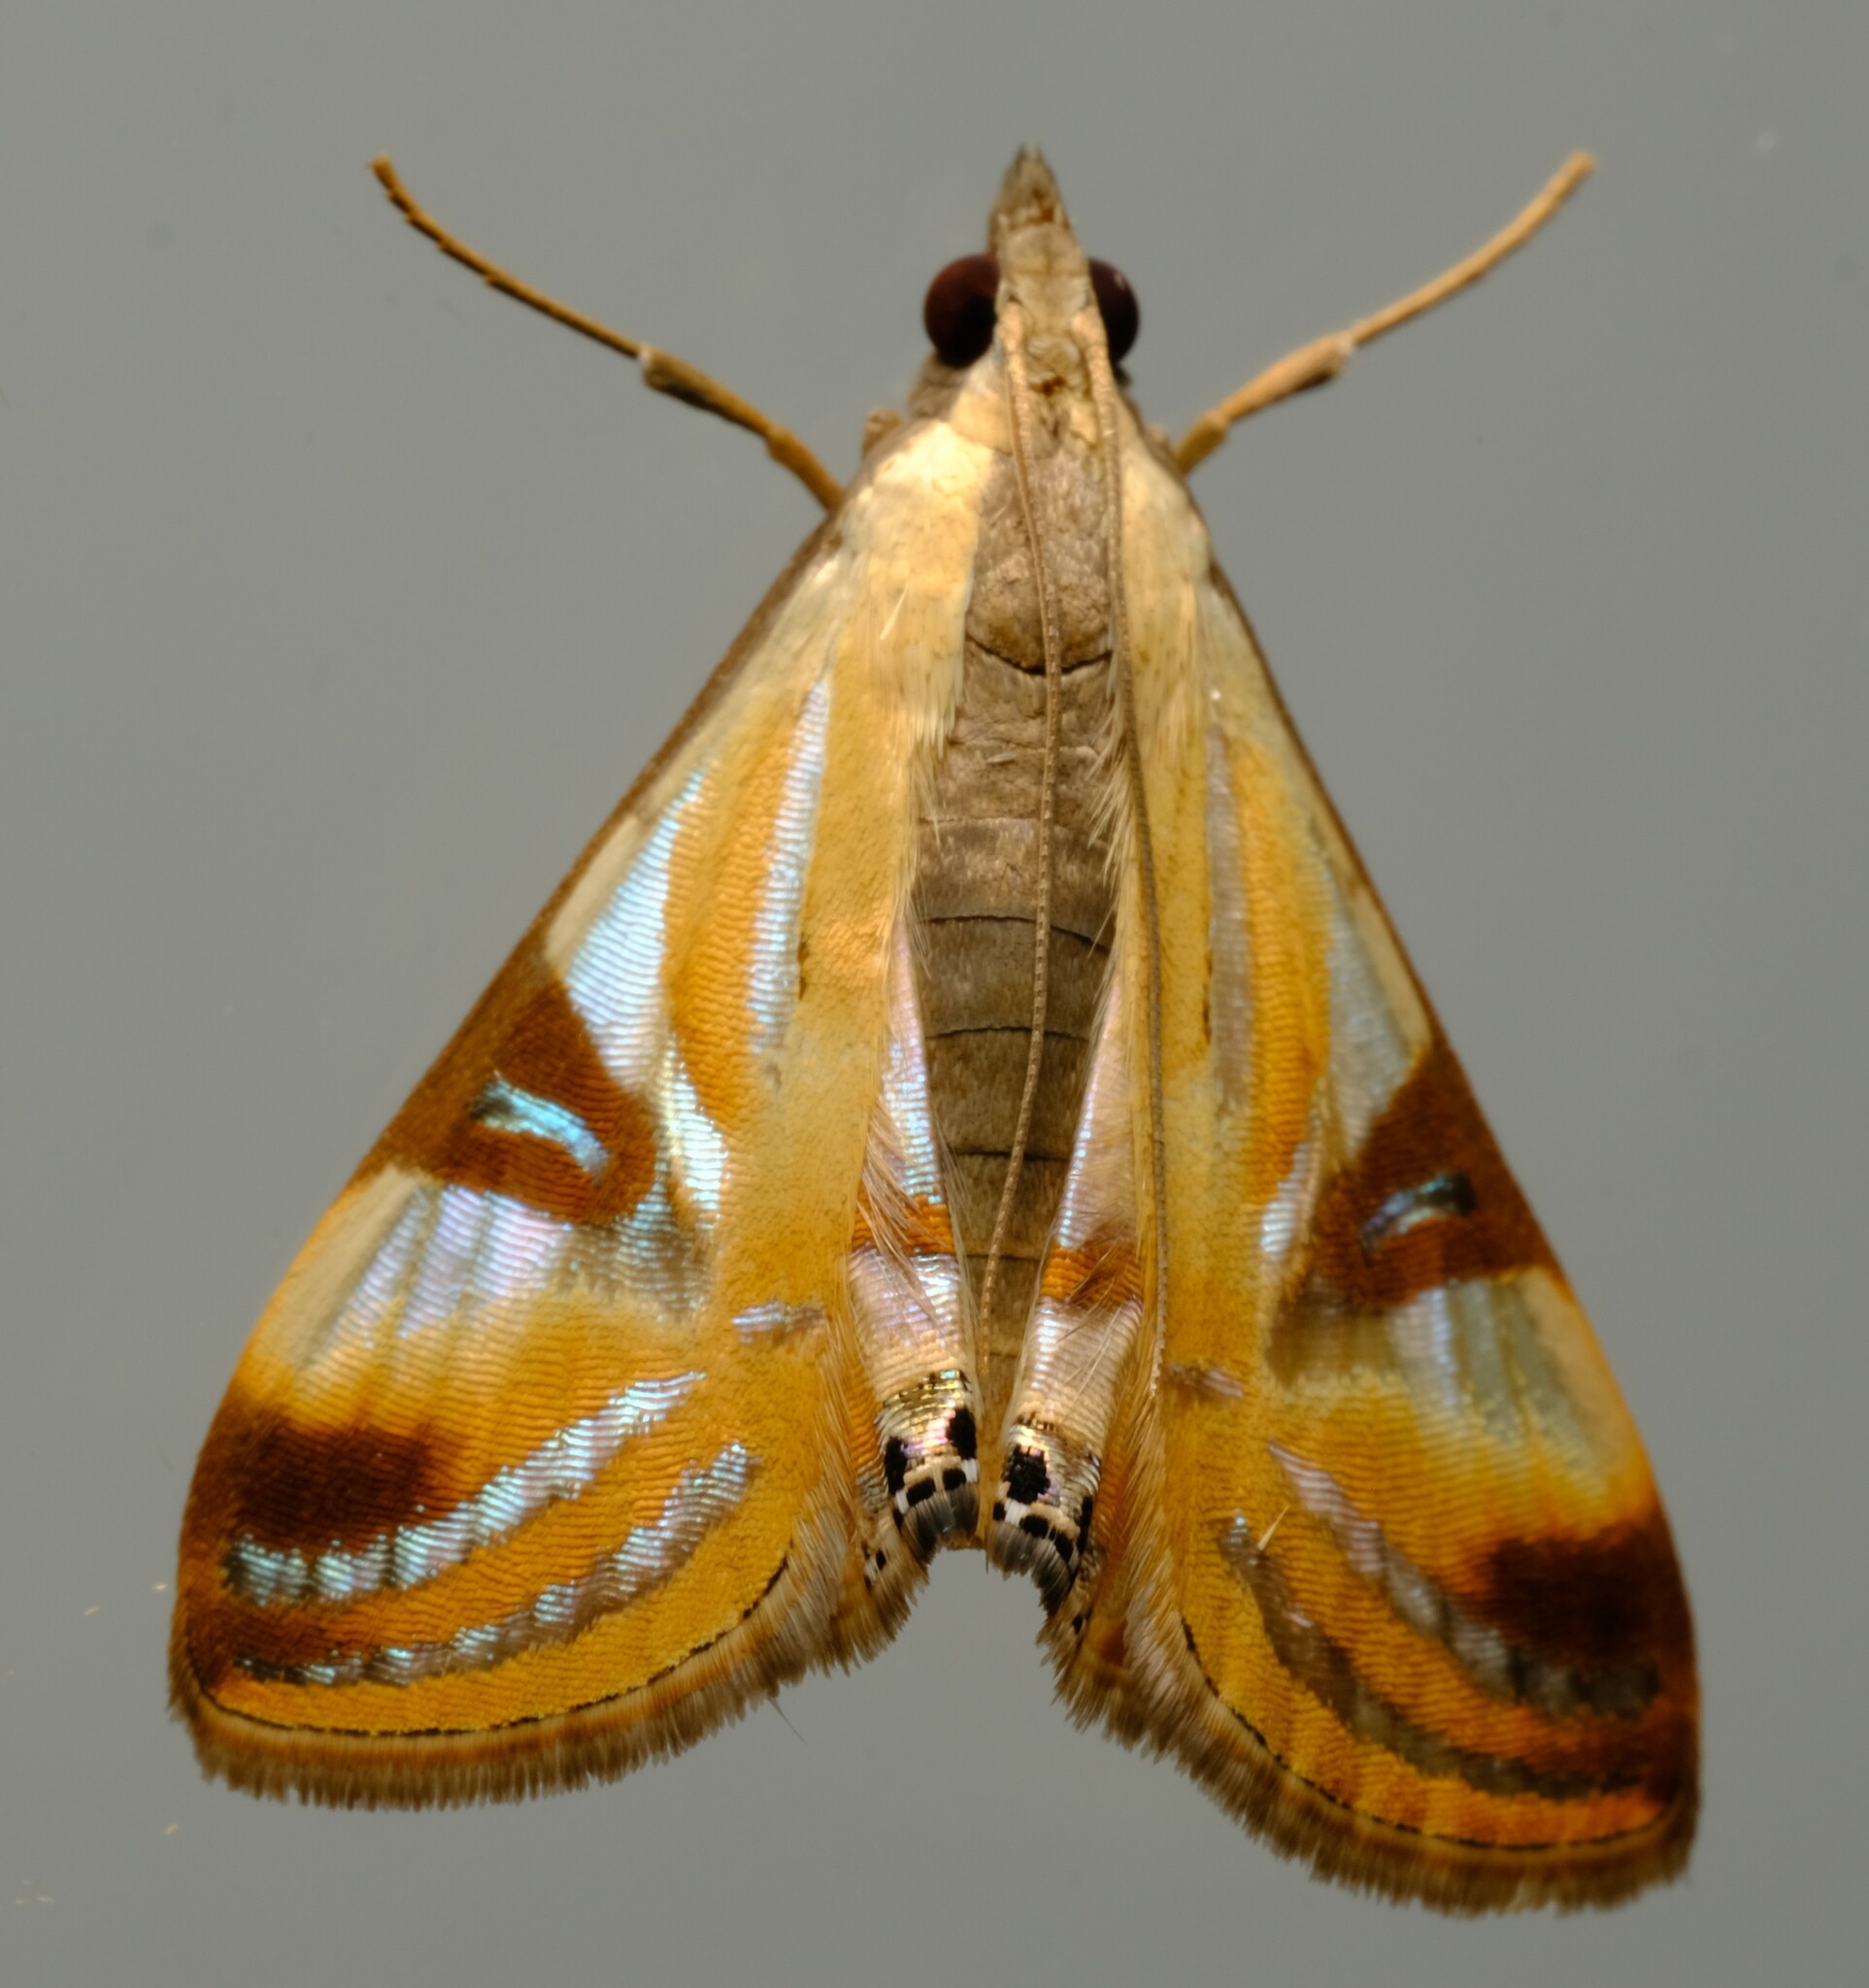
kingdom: Animalia
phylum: Arthropoda
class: Insecta
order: Lepidoptera
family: Crambidae
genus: Talanga
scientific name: Talanga tolumnialis
